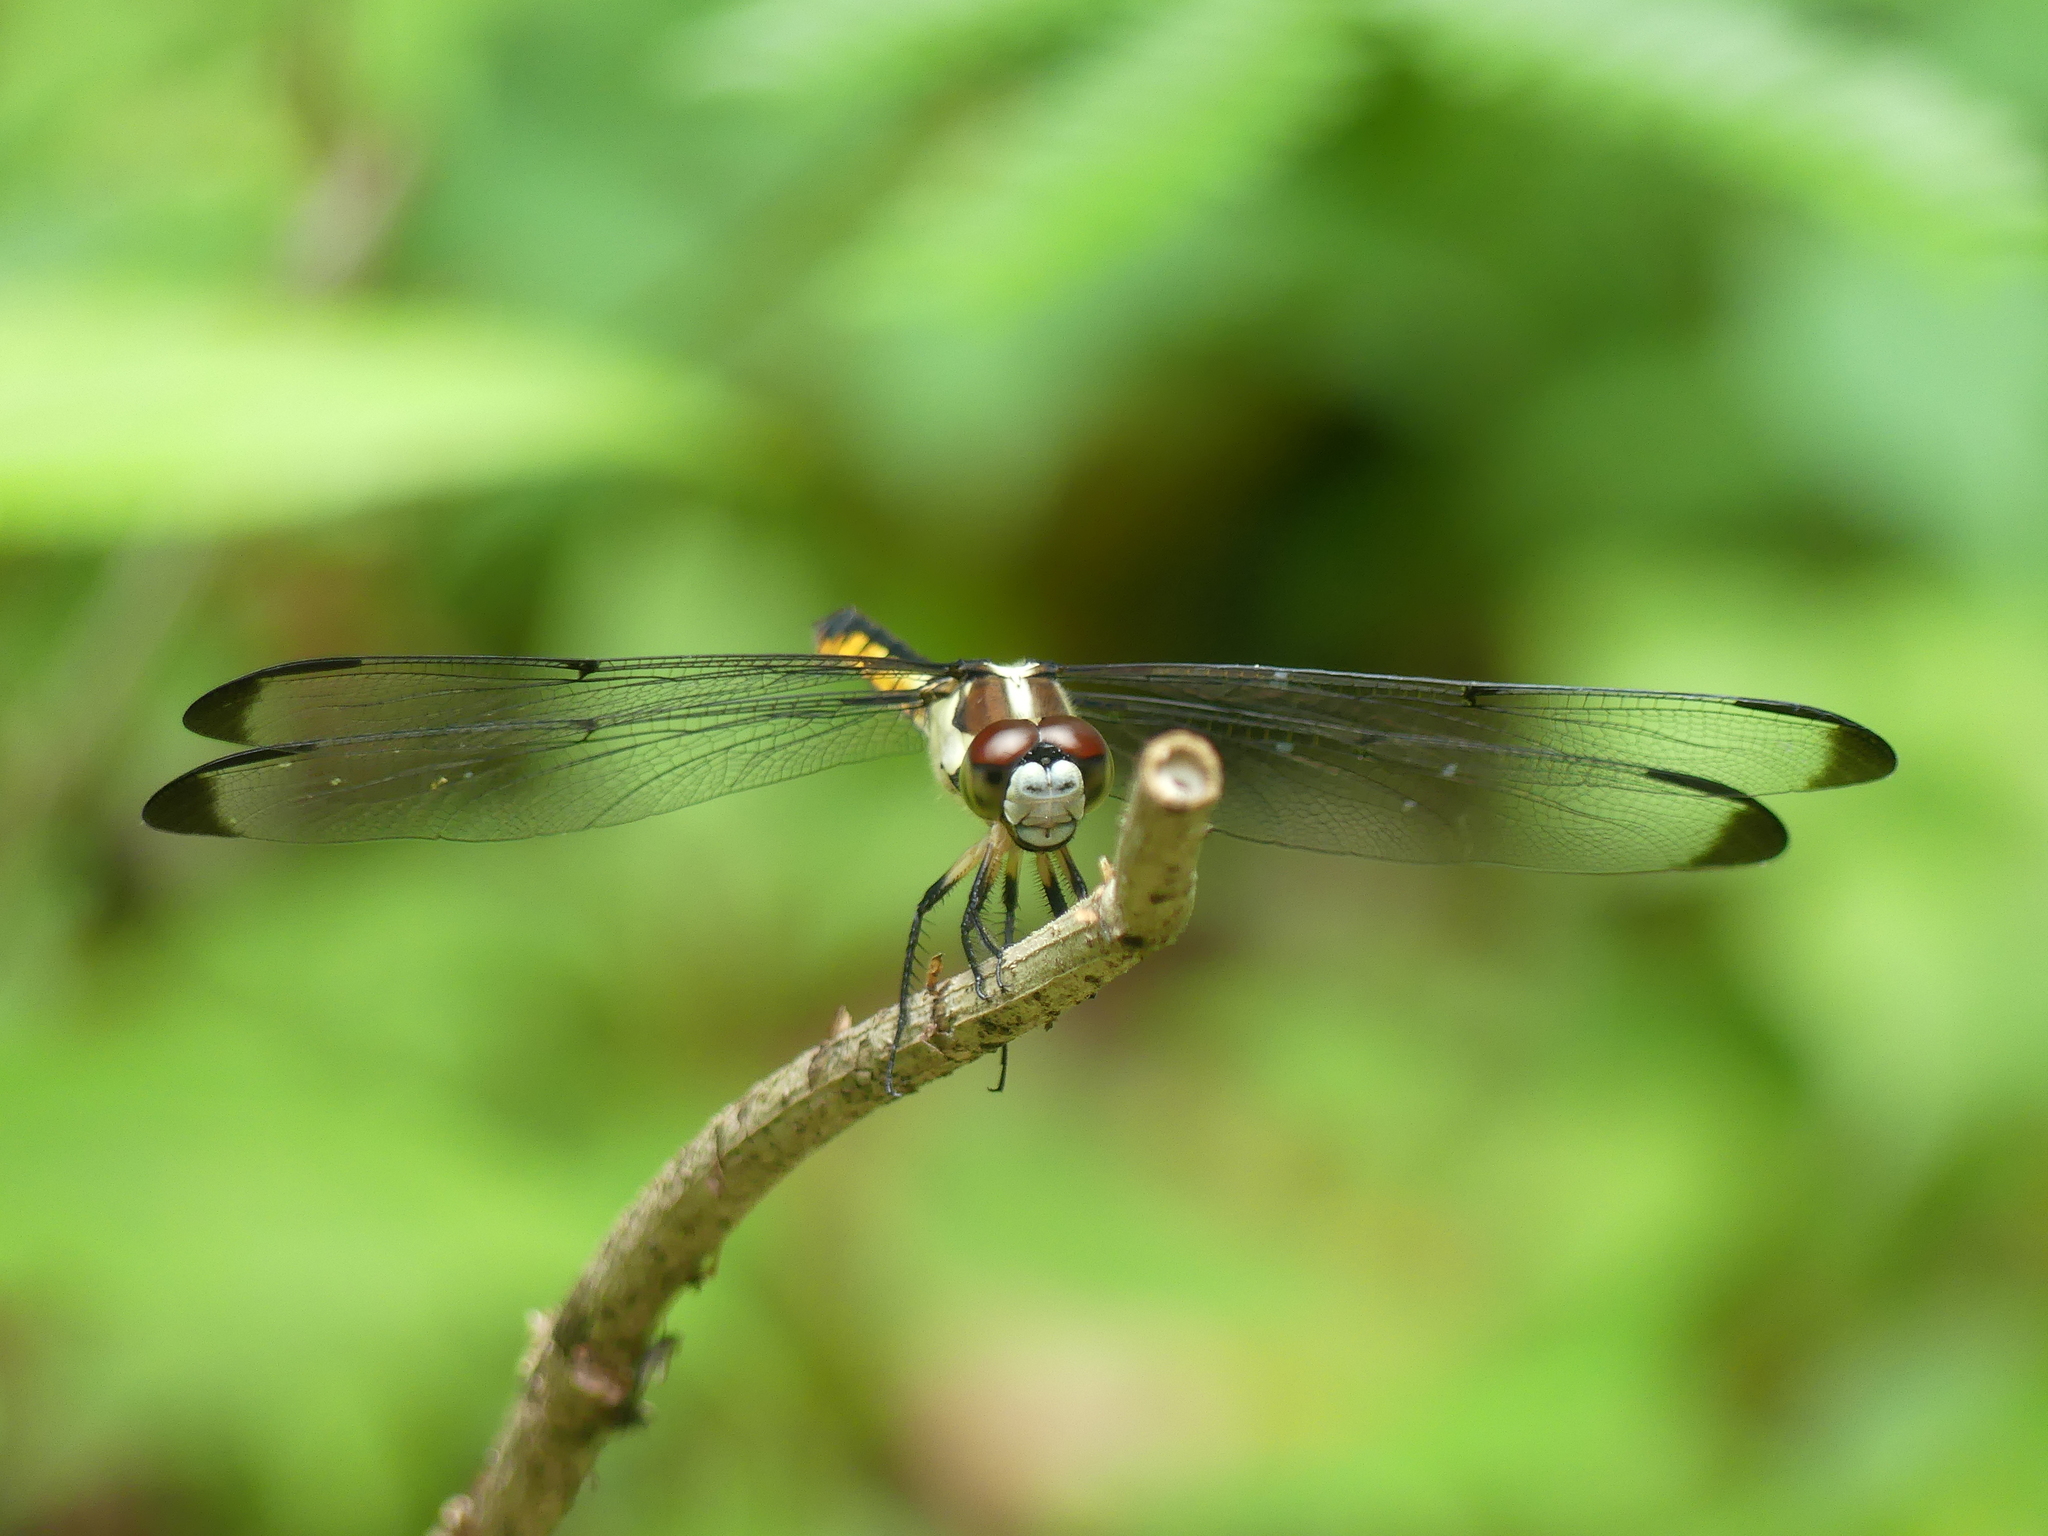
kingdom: Animalia
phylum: Arthropoda
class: Insecta
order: Odonata
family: Libellulidae
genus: Libellula
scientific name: Libellula vibrans
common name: Great blue skimmer
